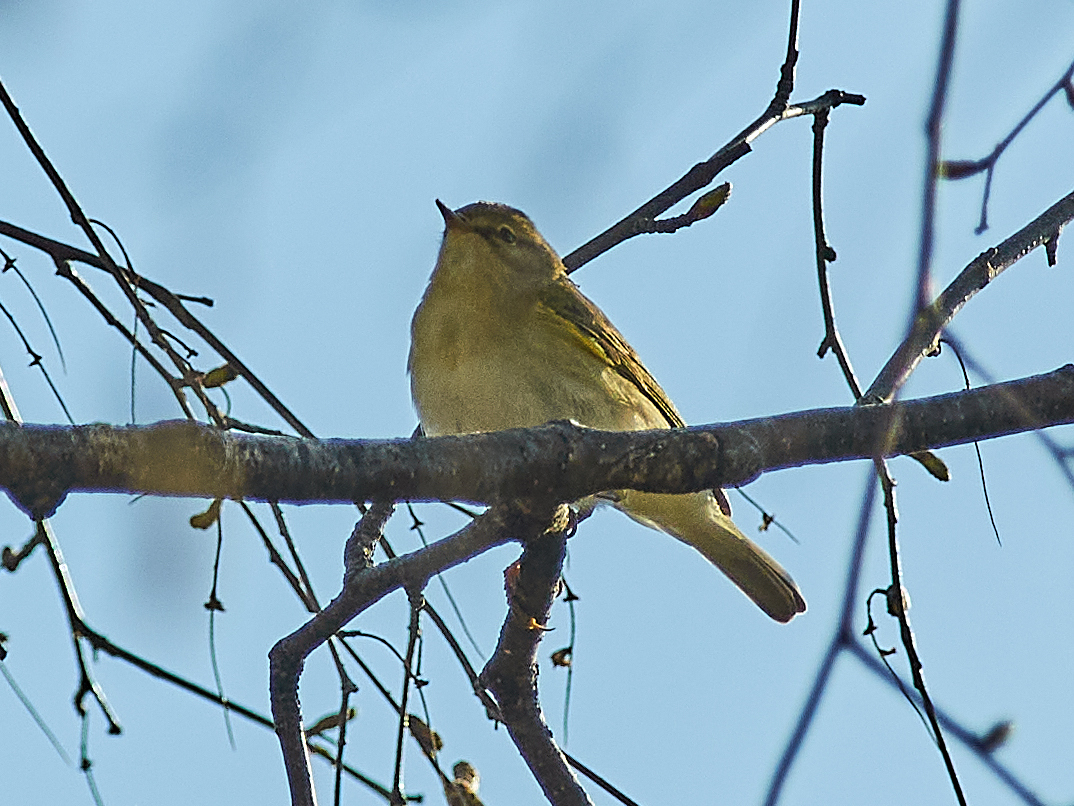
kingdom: Animalia
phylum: Chordata
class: Aves
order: Passeriformes
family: Phylloscopidae
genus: Phylloscopus
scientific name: Phylloscopus collybita
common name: Common chiffchaff
